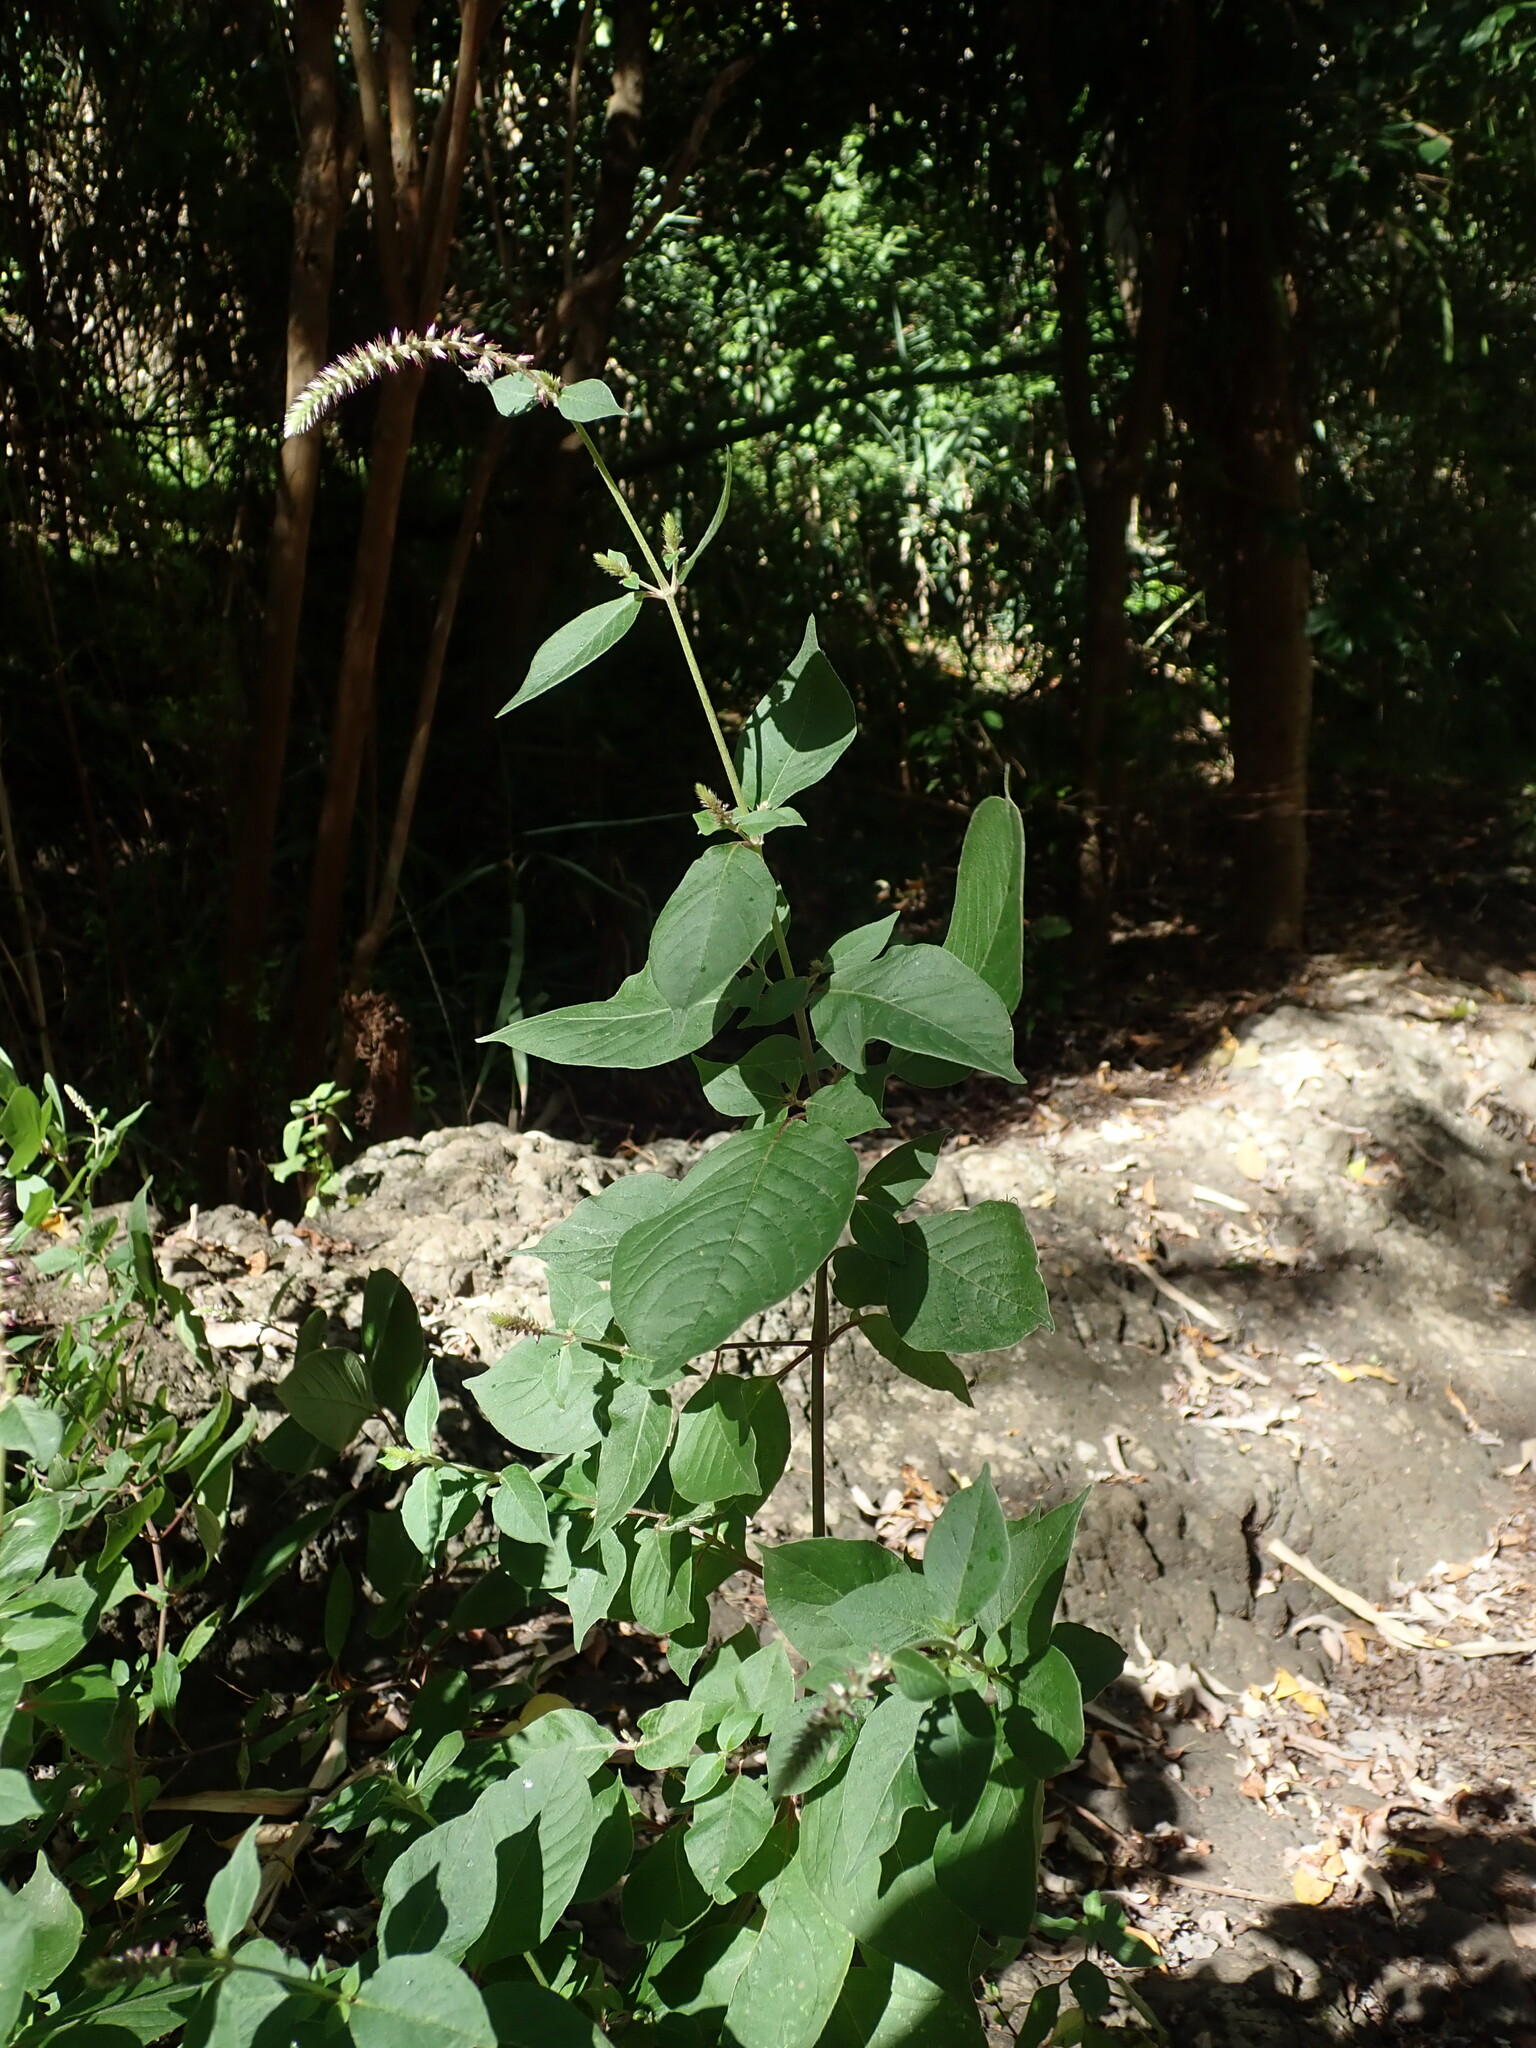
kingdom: Plantae
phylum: Tracheophyta
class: Magnoliopsida
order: Caryophyllales
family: Amaranthaceae
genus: Achyranthes
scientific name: Achyranthes aspera
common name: Devil's horsewhip
